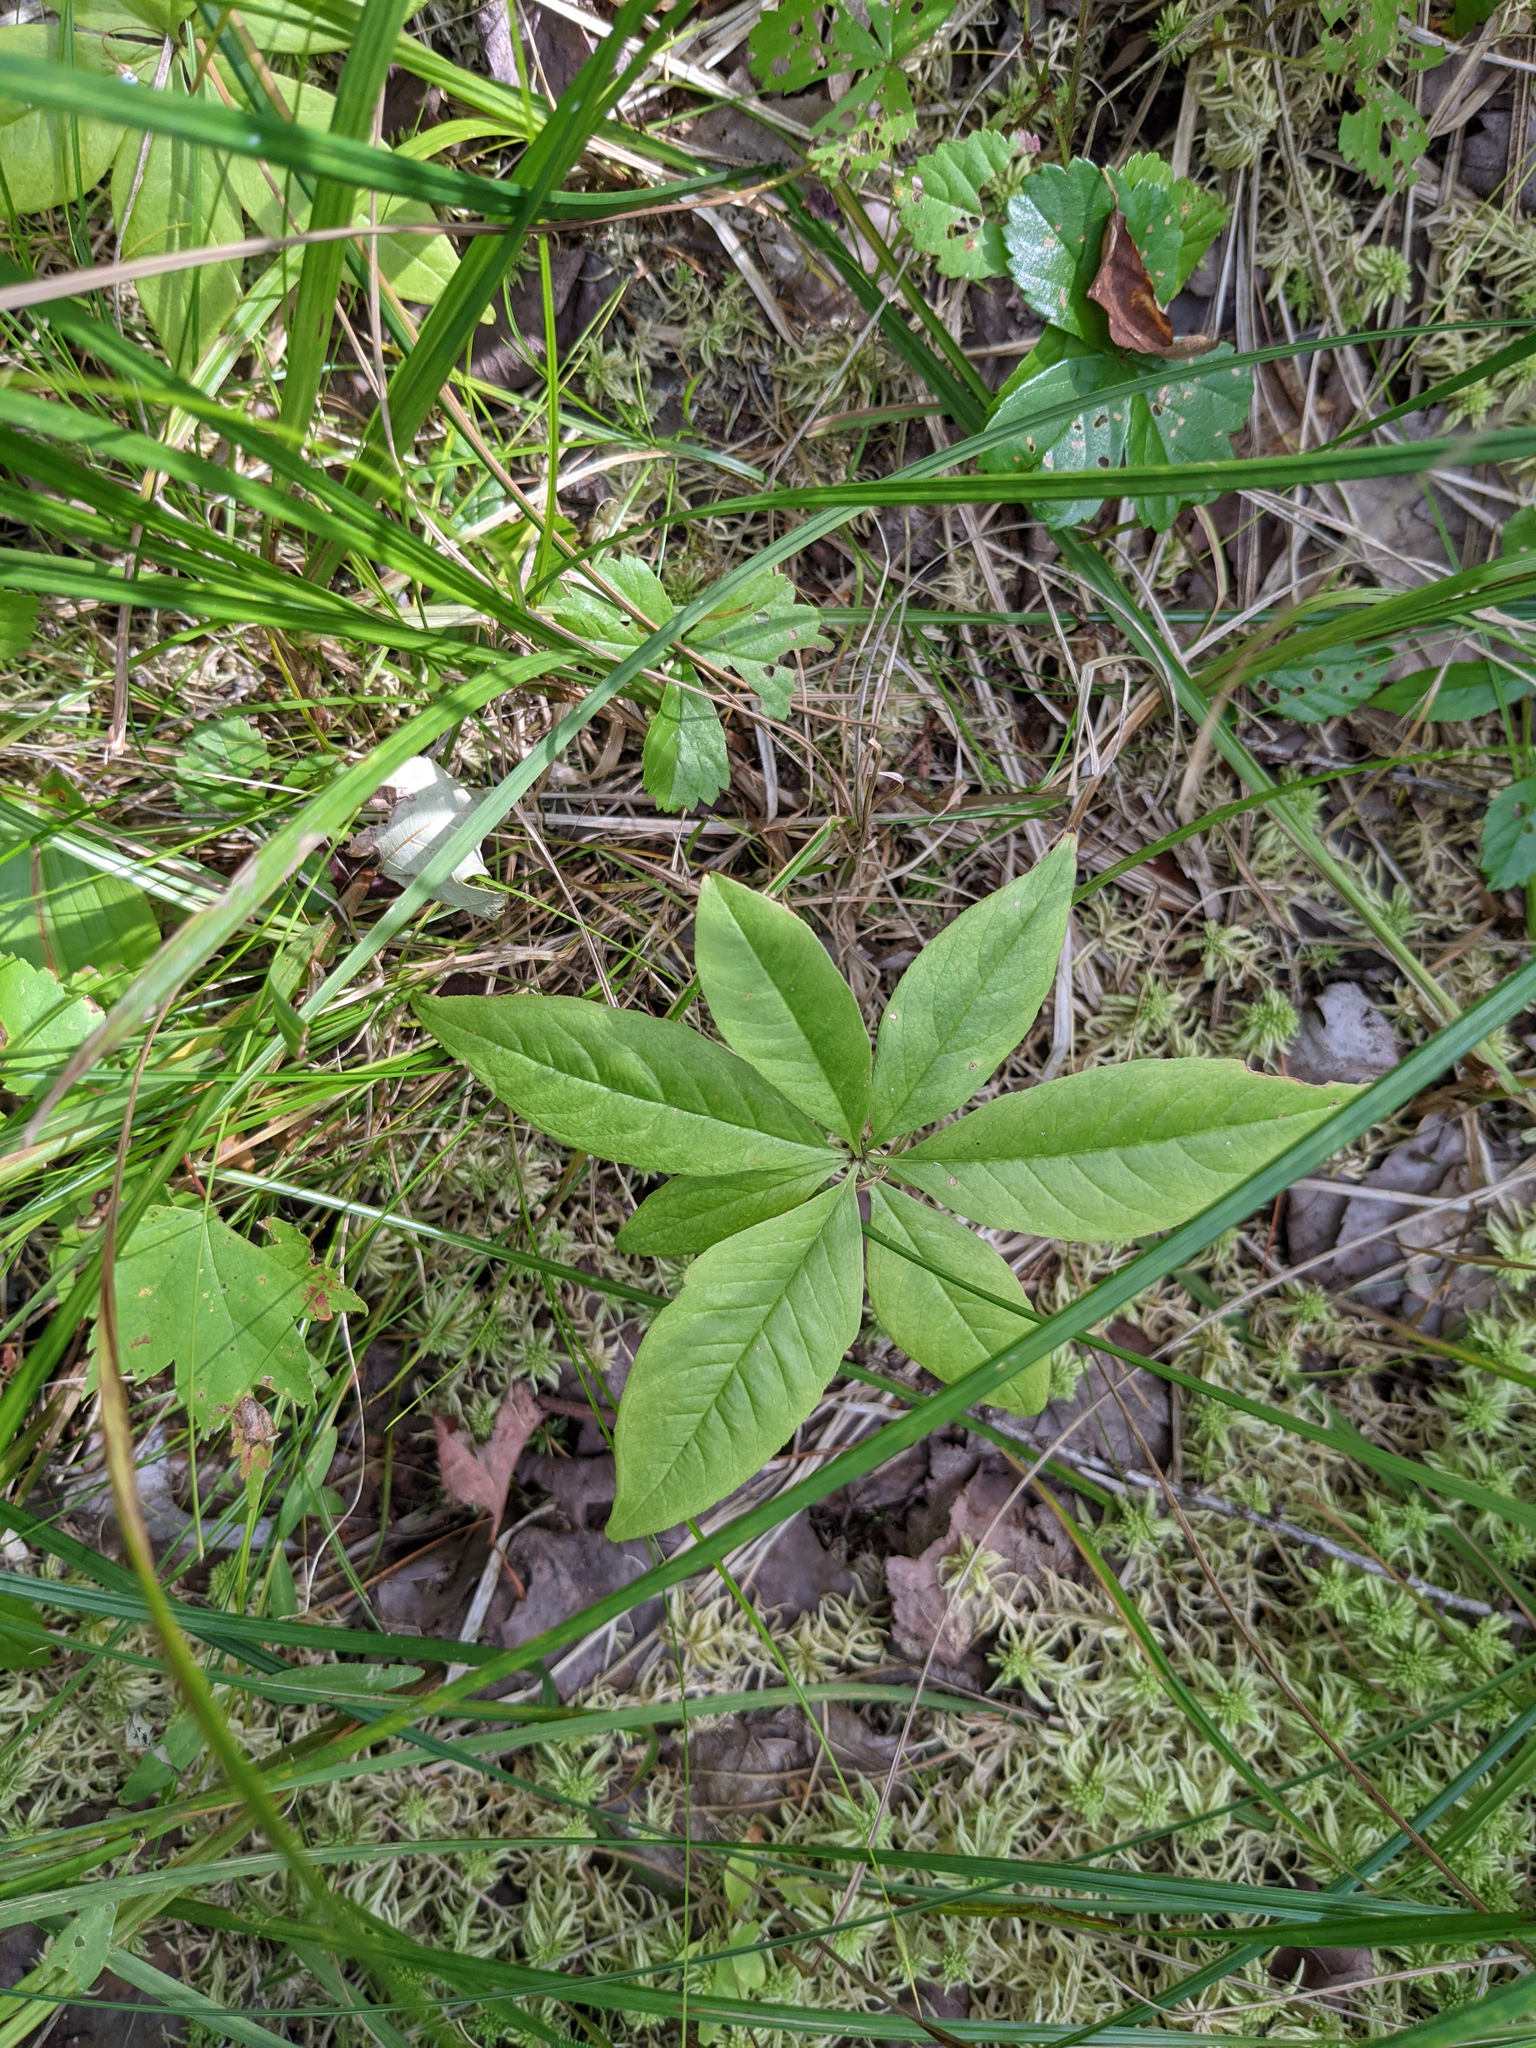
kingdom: Plantae
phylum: Tracheophyta
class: Magnoliopsida
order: Ericales
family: Primulaceae
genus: Lysimachia
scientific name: Lysimachia borealis
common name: American starflower
